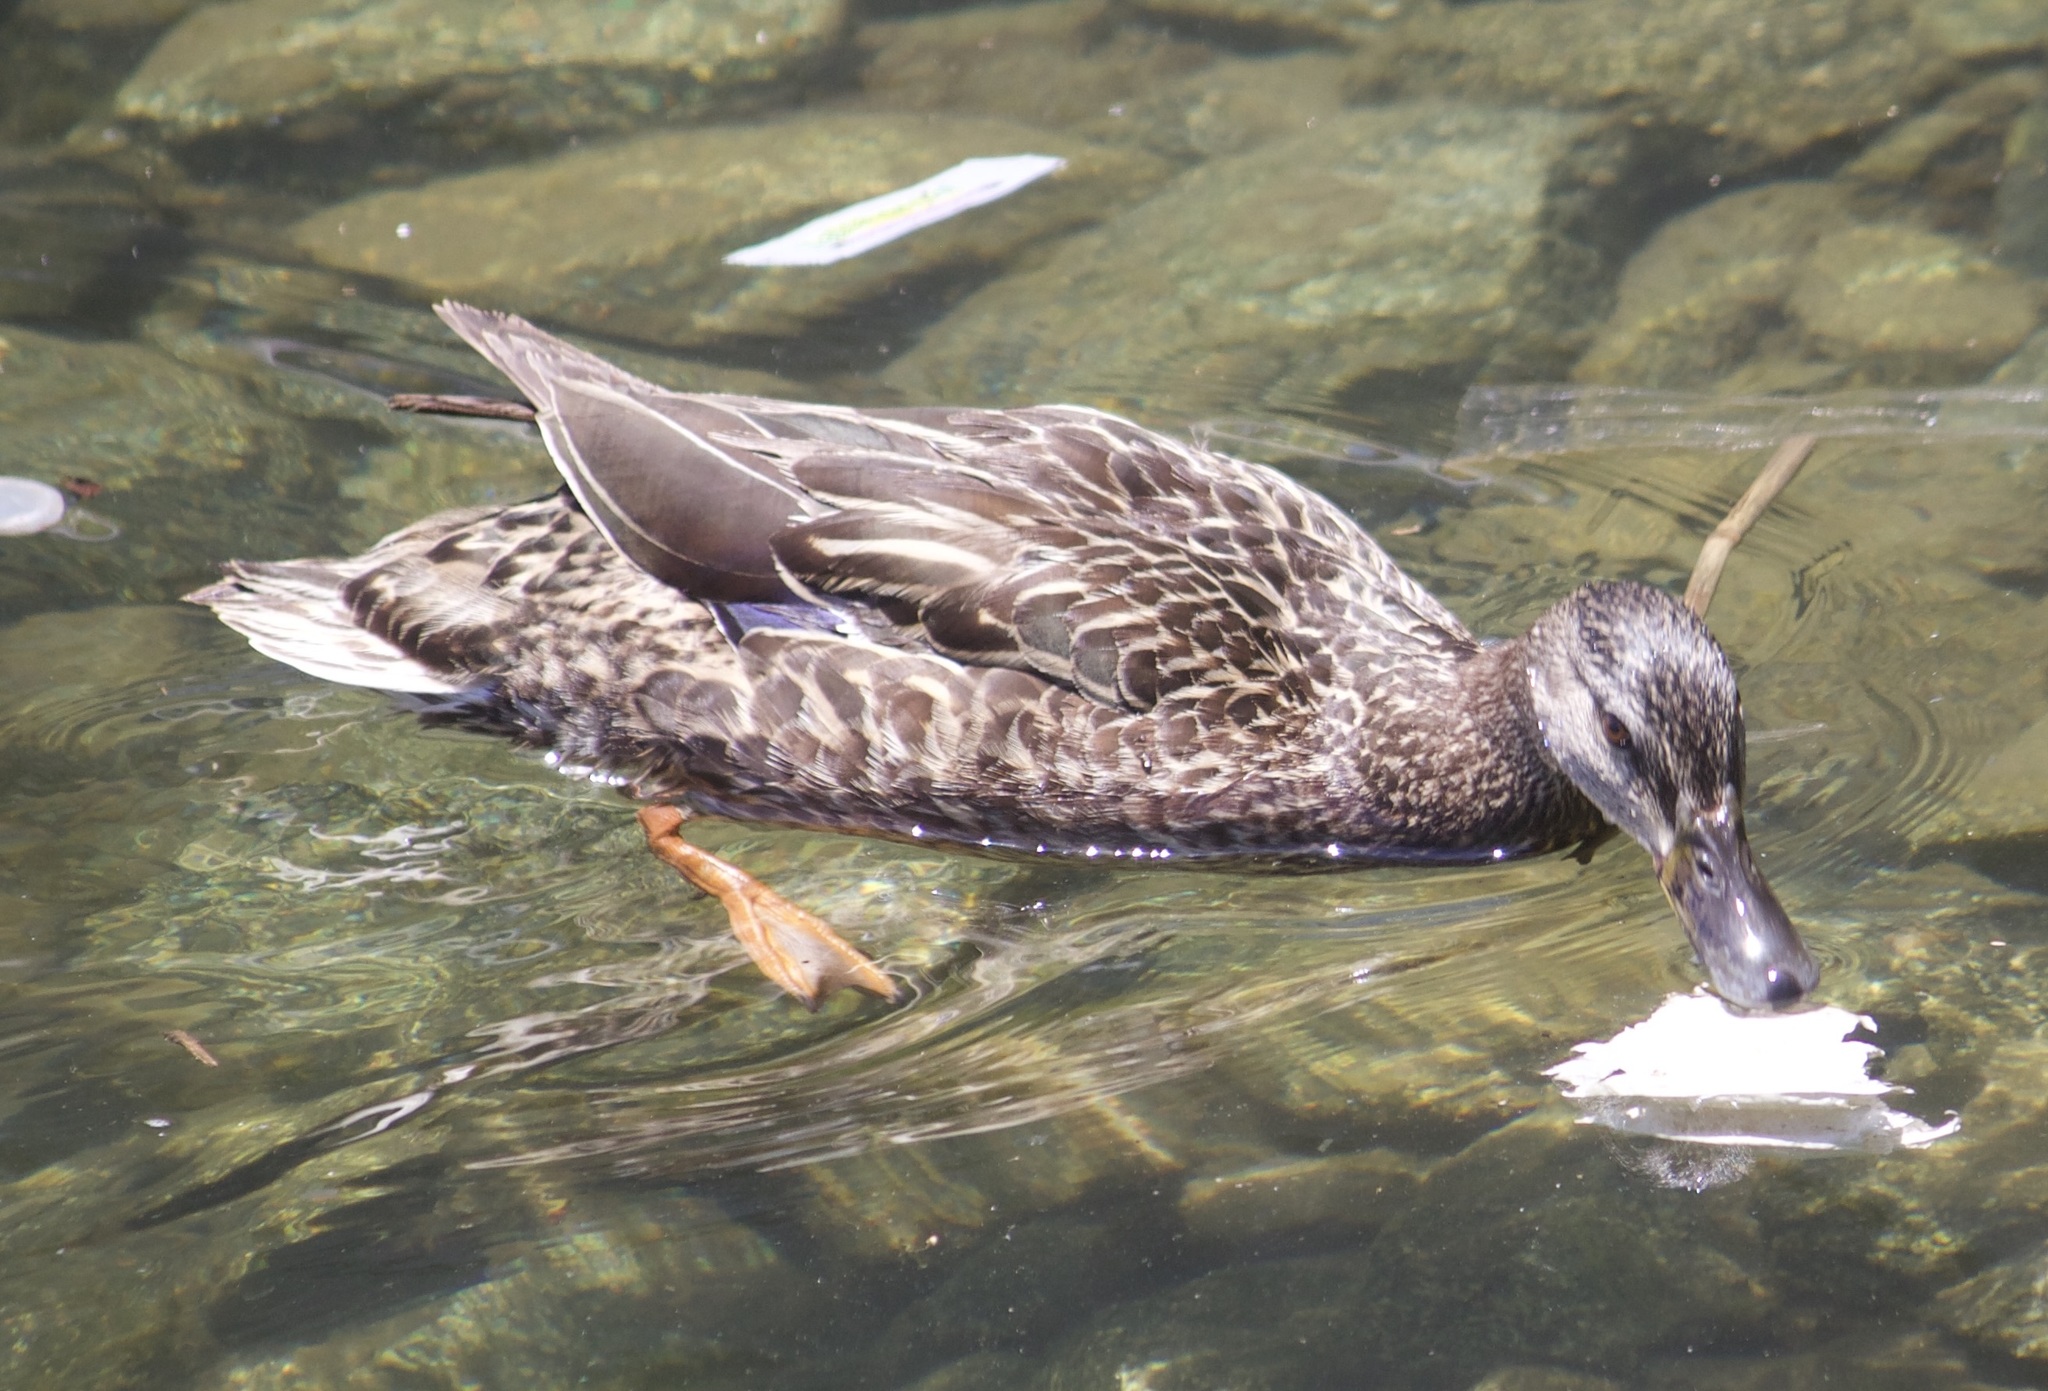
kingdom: Animalia
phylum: Chordata
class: Aves
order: Anseriformes
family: Anatidae
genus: Anas
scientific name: Anas platyrhynchos
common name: Mallard
